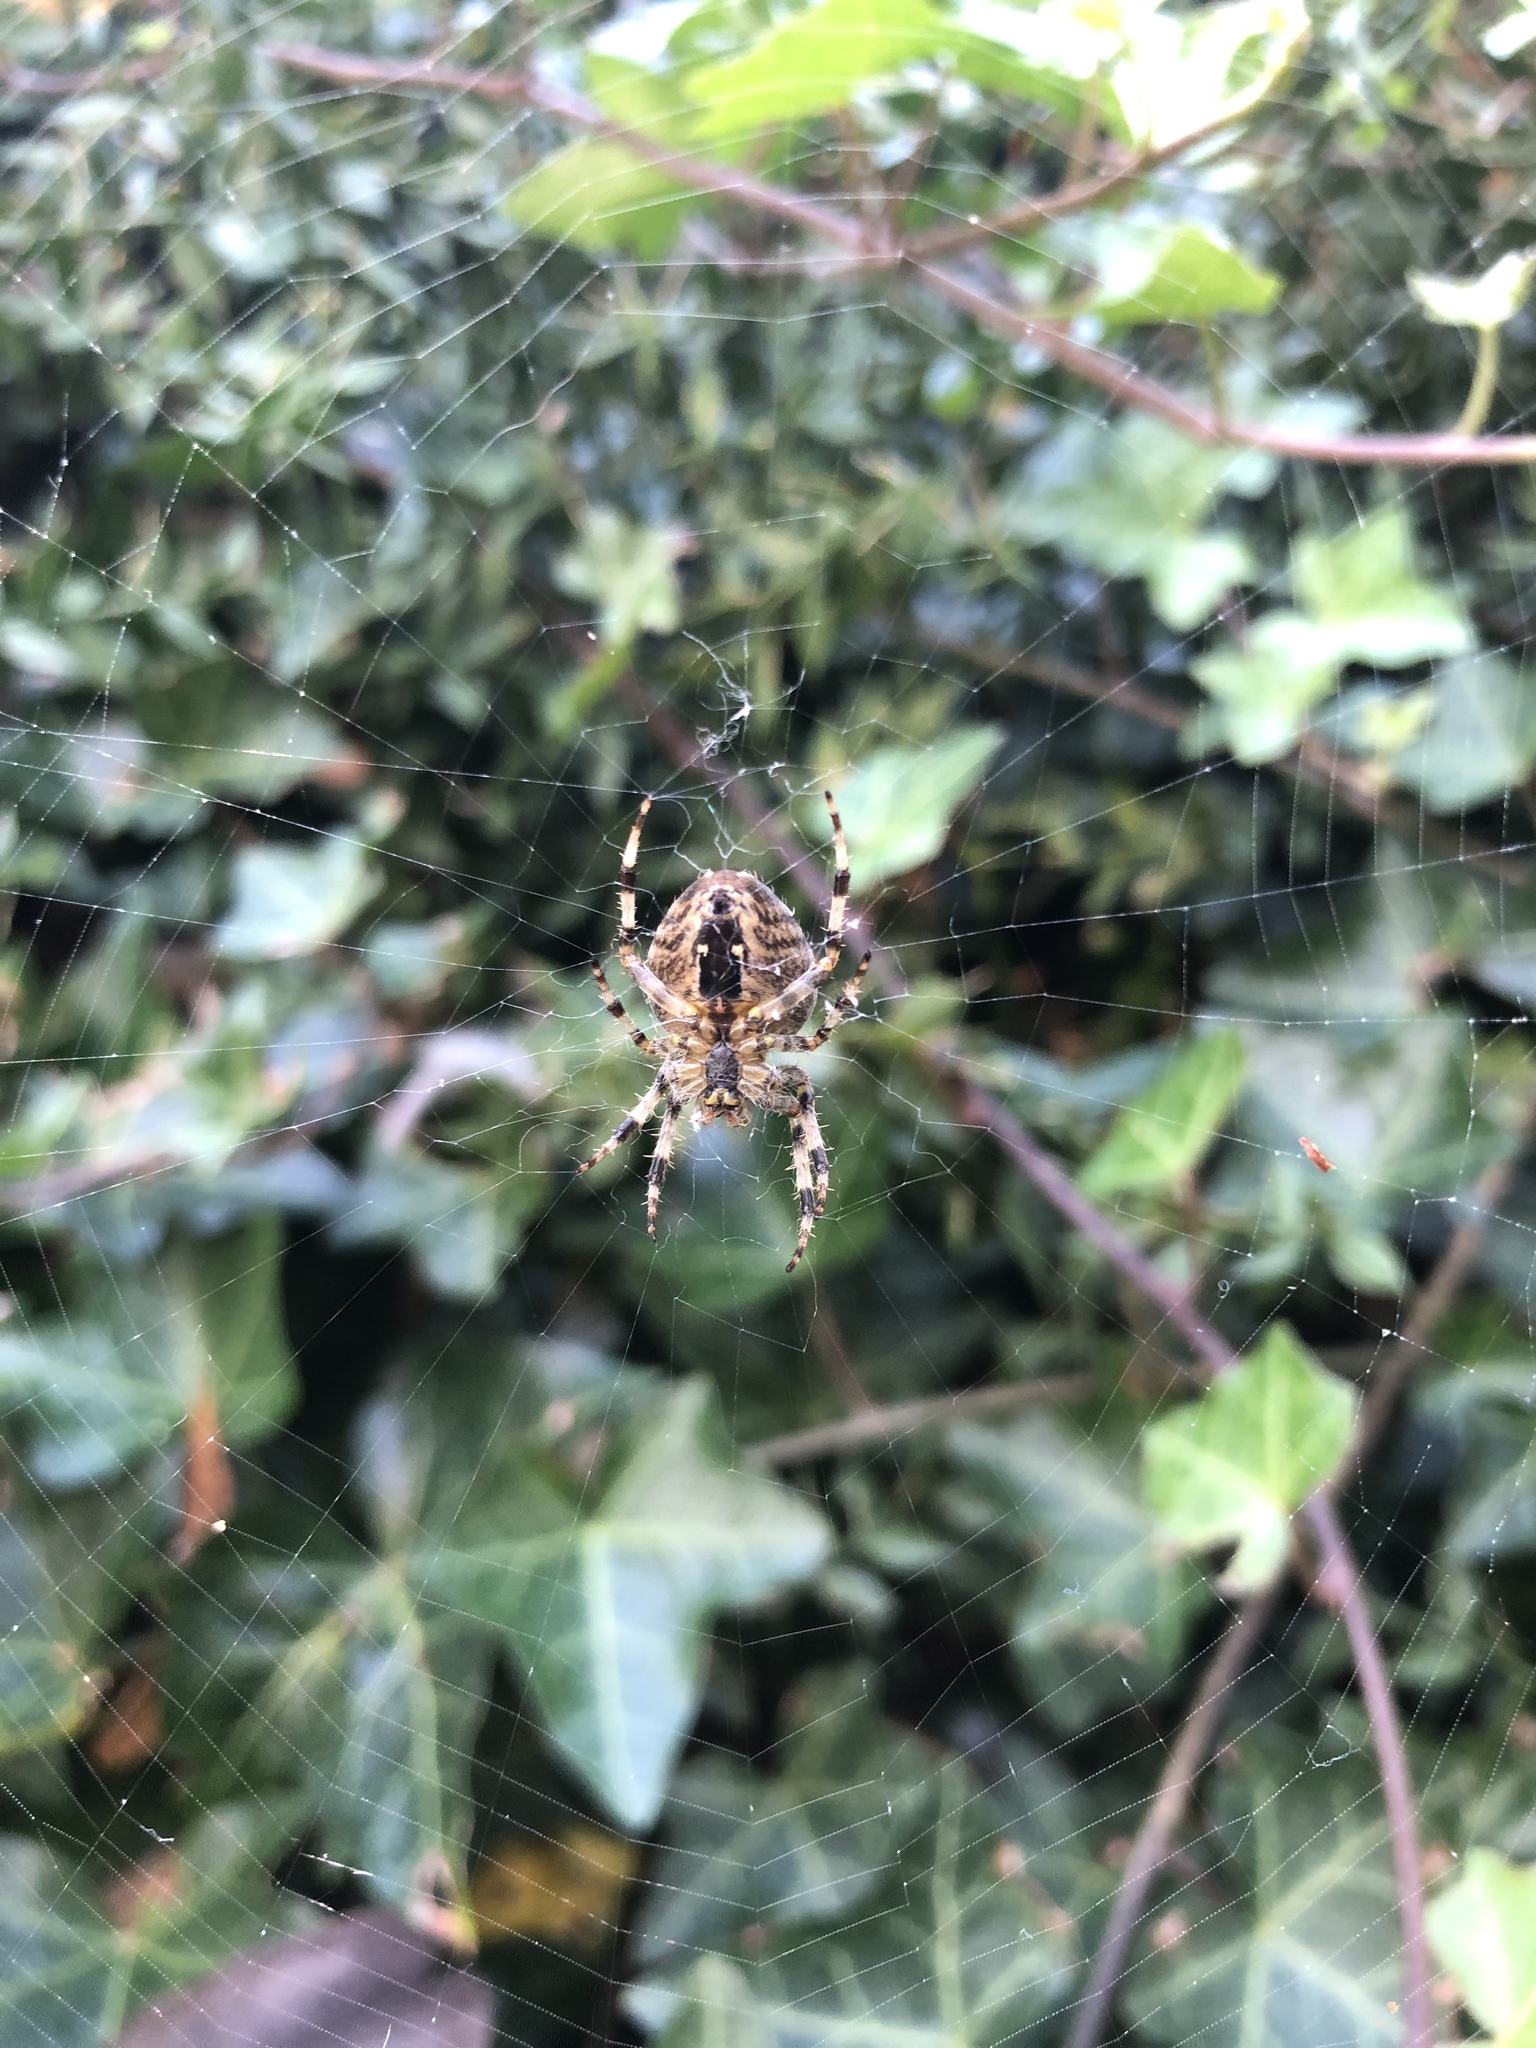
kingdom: Animalia
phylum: Arthropoda
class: Arachnida
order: Araneae
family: Araneidae
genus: Araneus
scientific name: Araneus diadematus
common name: Cross orbweaver
